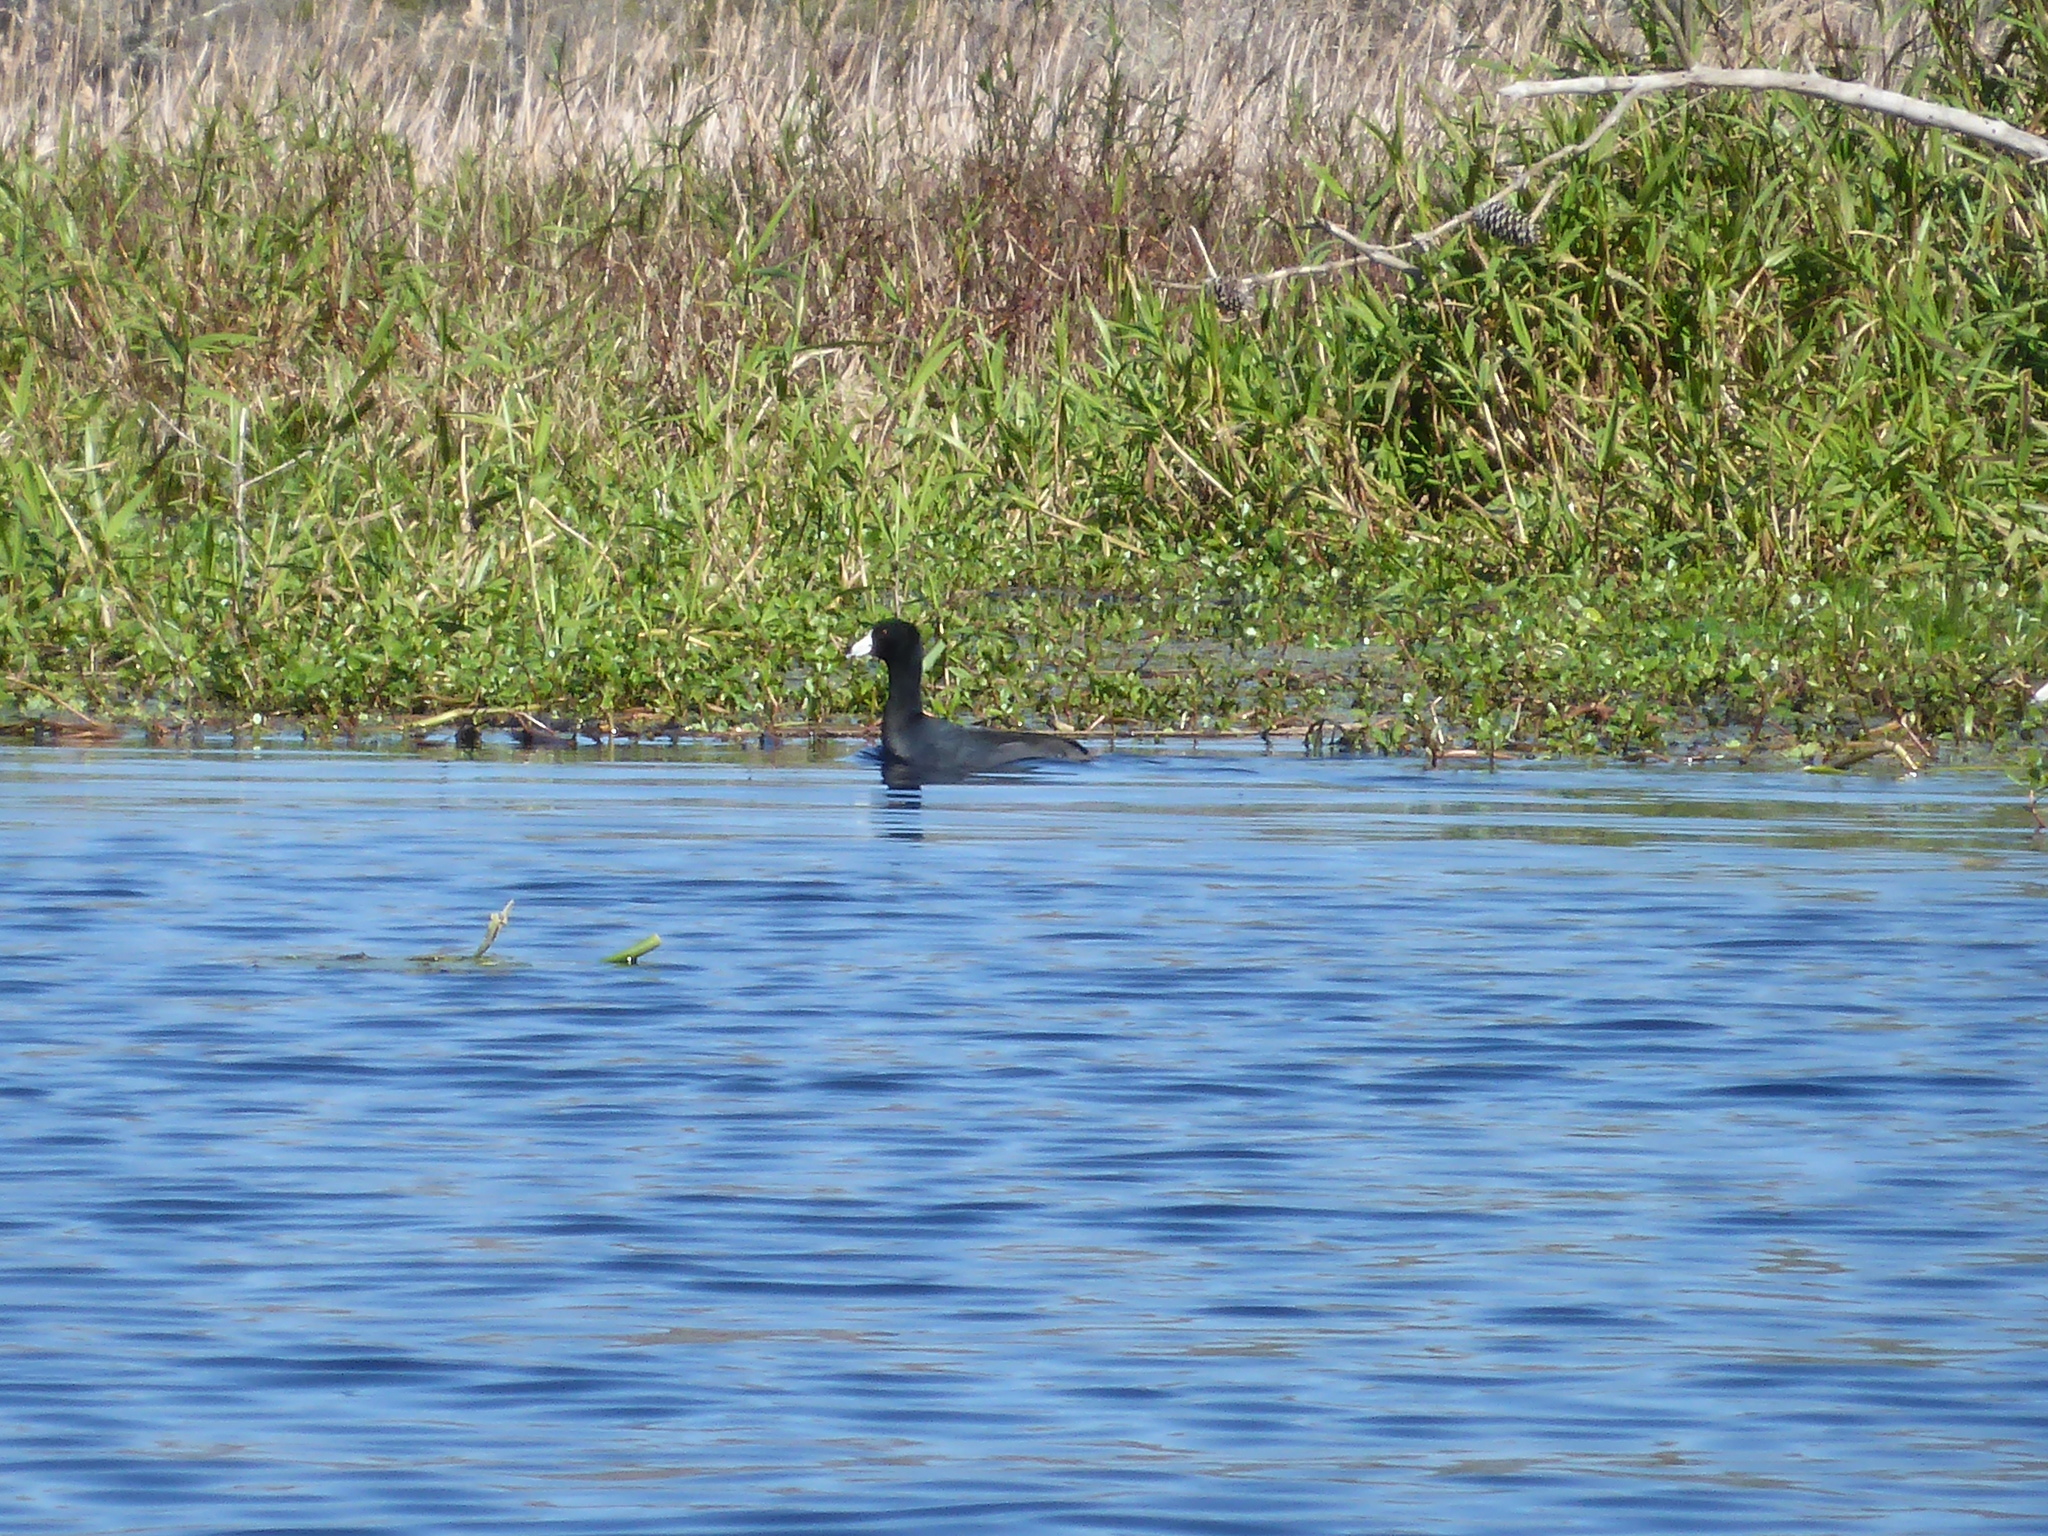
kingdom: Animalia
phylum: Chordata
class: Aves
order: Gruiformes
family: Rallidae
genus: Fulica
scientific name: Fulica americana
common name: American coot
